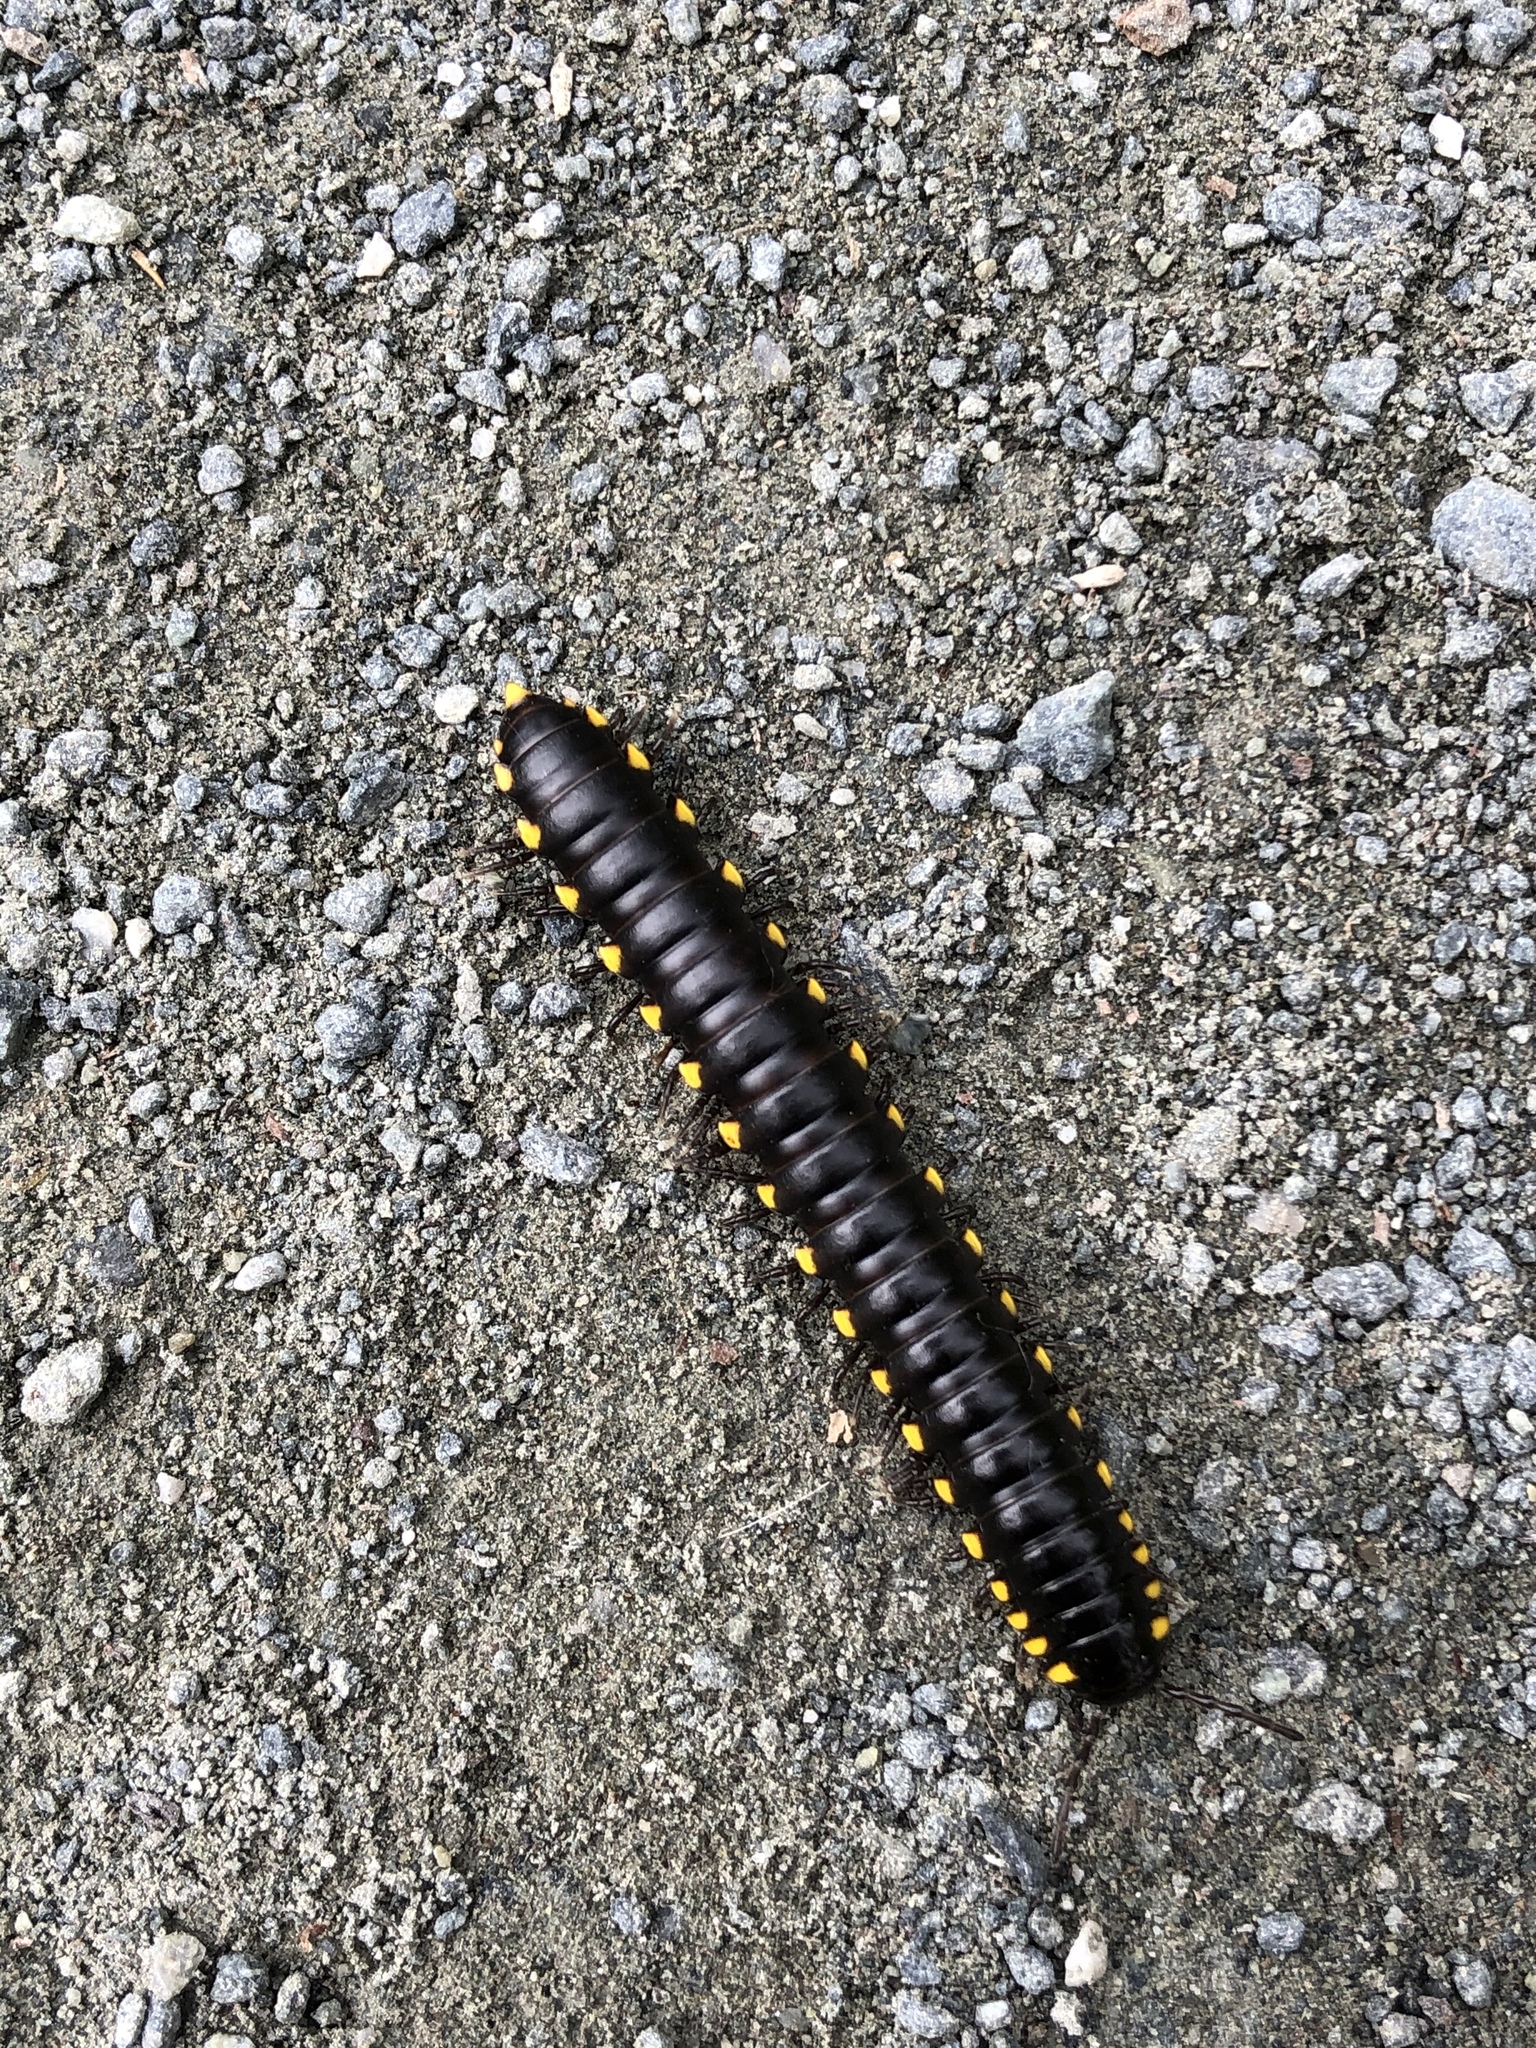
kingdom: Animalia
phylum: Arthropoda
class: Diplopoda
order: Polydesmida
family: Xystodesmidae
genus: Harpaphe
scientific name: Harpaphe haydeniana
